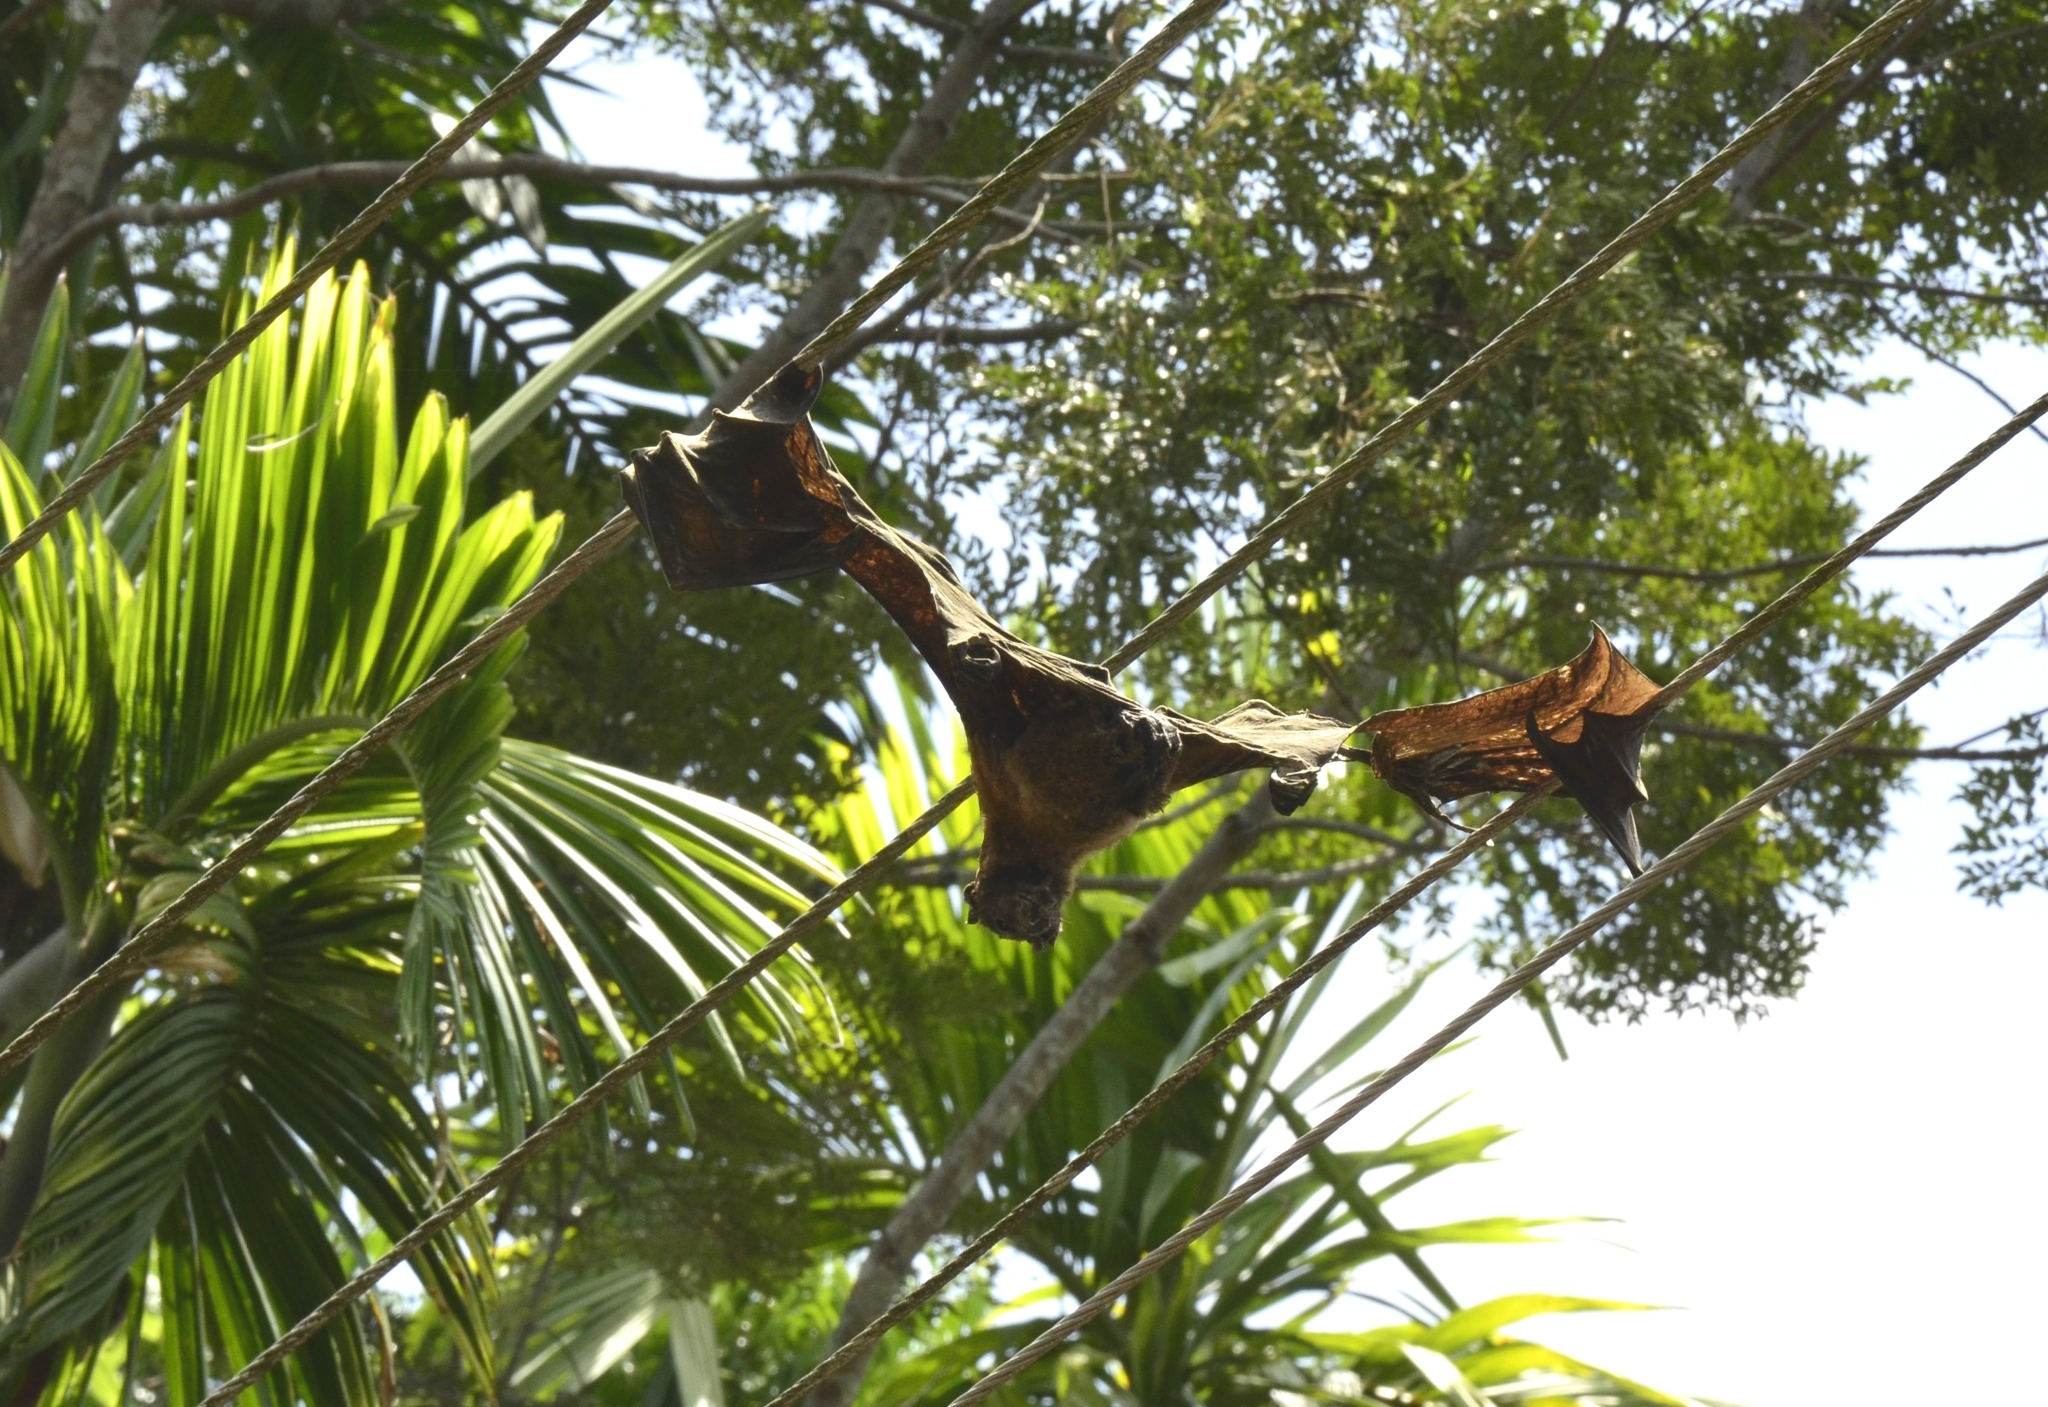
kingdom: Animalia
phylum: Chordata
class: Mammalia
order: Chiroptera
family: Pteropodidae
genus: Pteropus
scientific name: Pteropus vampyrus
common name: Large flying fox
